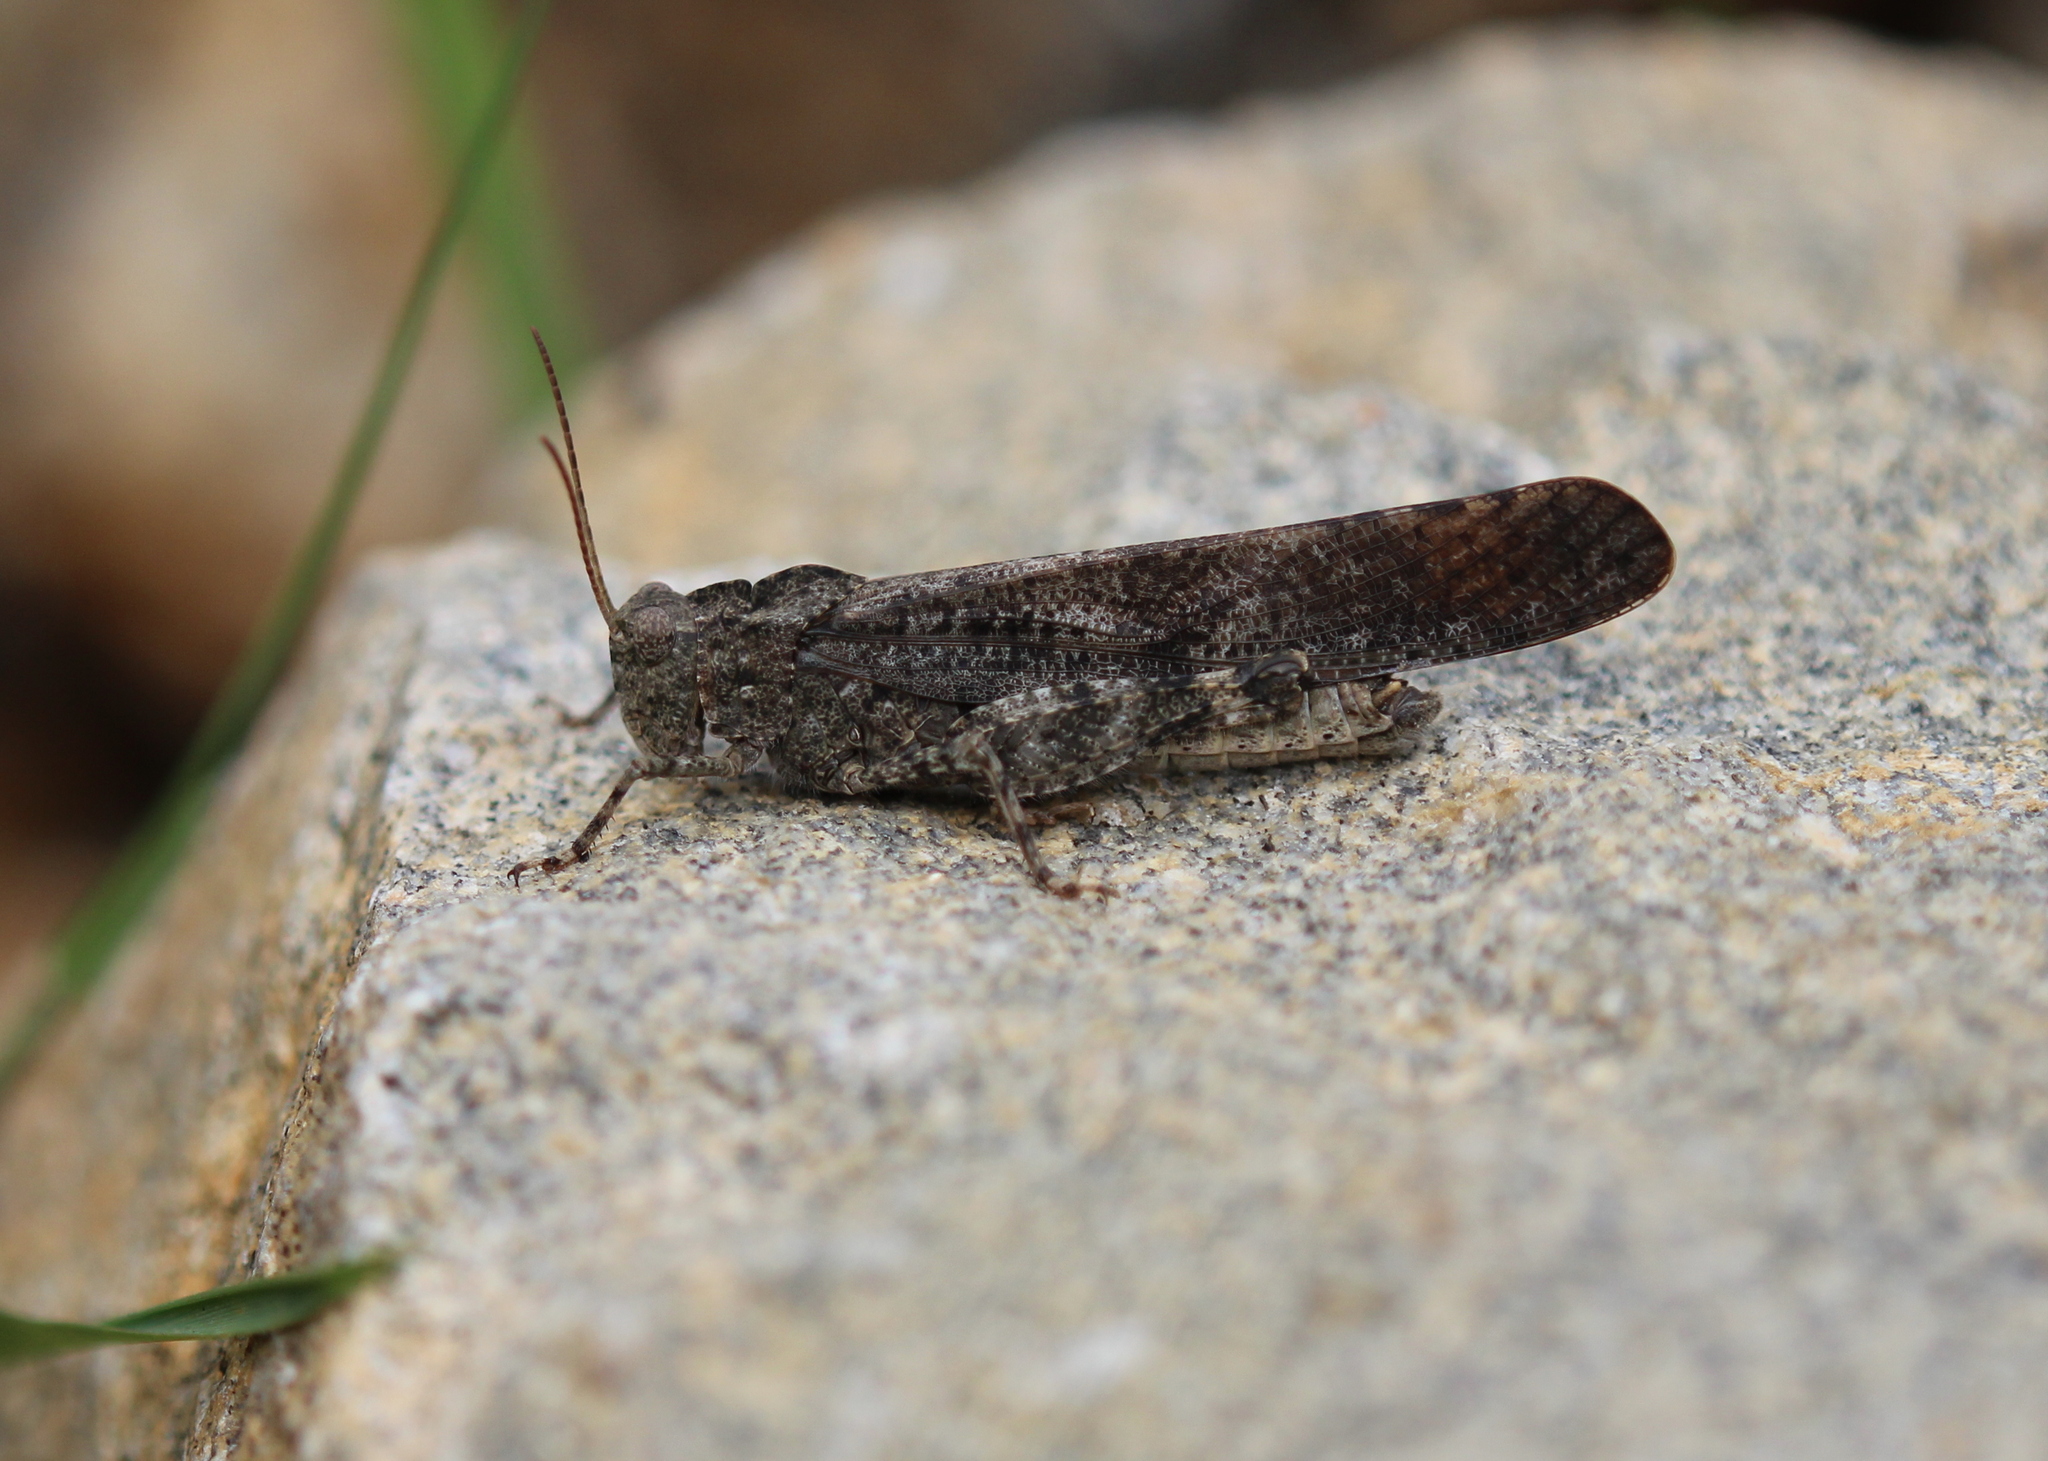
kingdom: Animalia
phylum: Arthropoda
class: Insecta
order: Orthoptera
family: Acrididae
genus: Dissosteira
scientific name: Dissosteira carolina
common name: Carolina grasshopper
